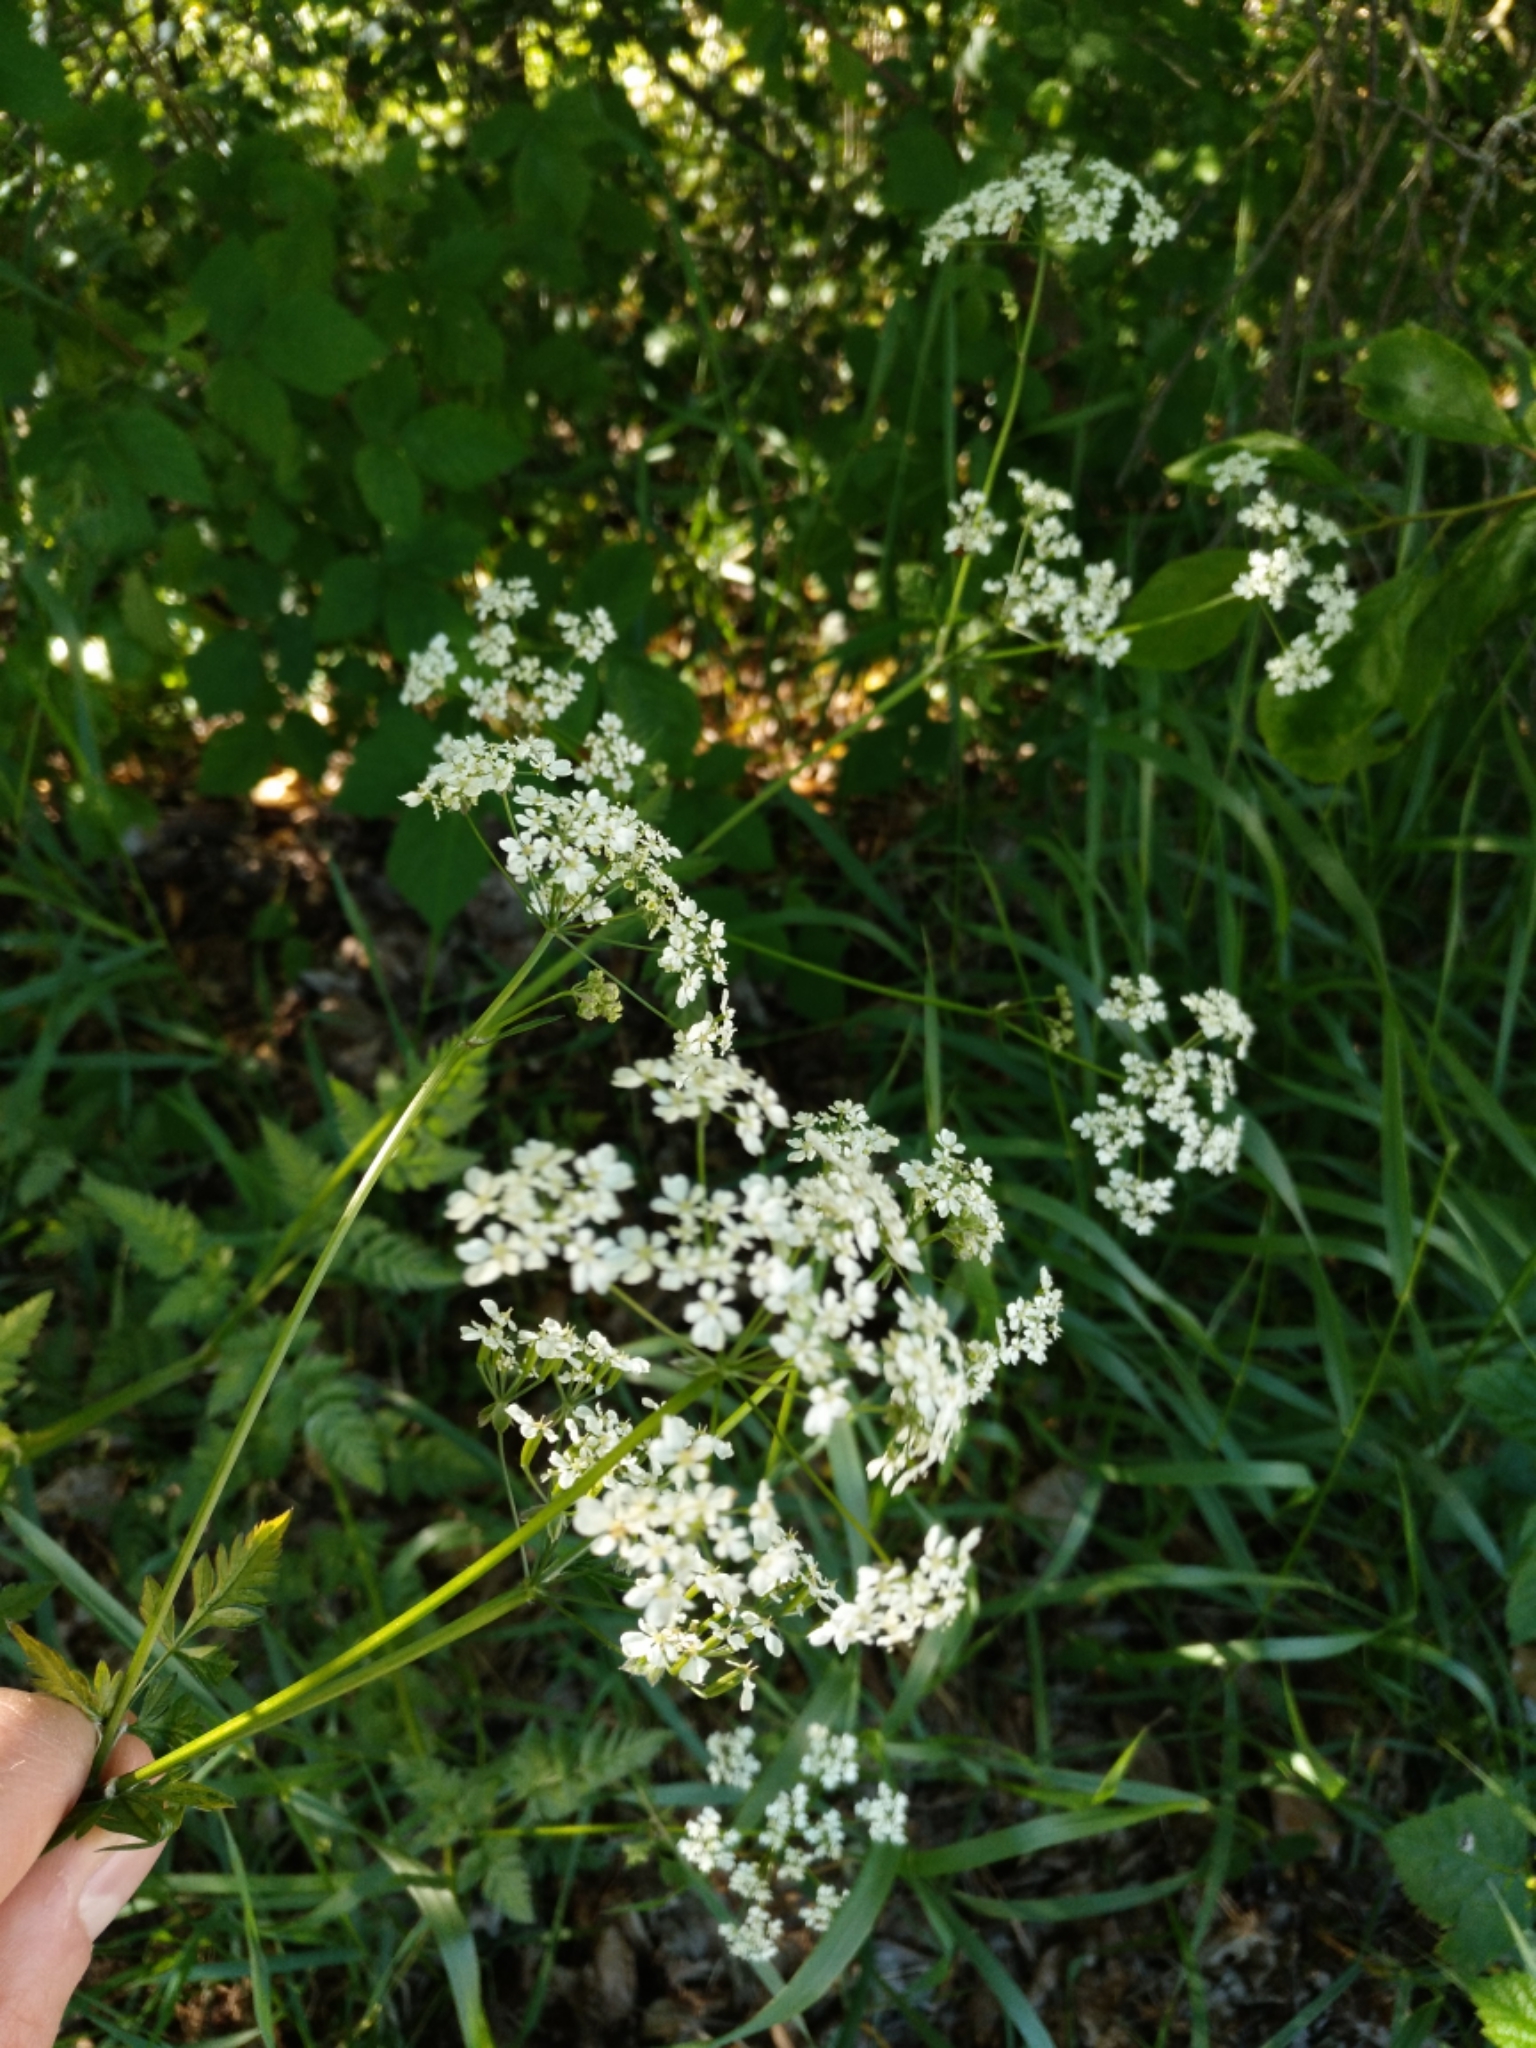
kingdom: Plantae
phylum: Tracheophyta
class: Magnoliopsida
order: Apiales
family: Apiaceae
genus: Anthriscus
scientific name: Anthriscus sylvestris
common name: Cow parsley
